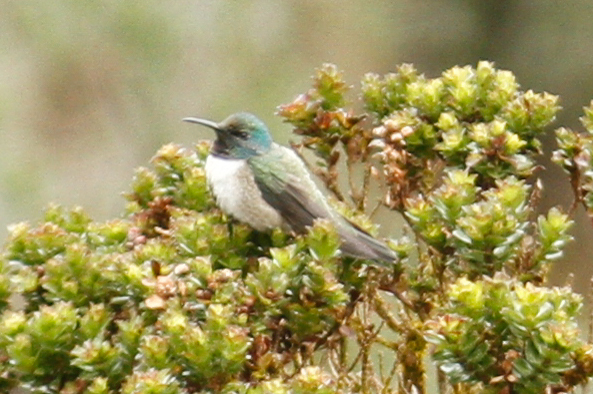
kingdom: Animalia
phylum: Chordata
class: Aves
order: Apodiformes
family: Trochilidae
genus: Oreotrochilus
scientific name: Oreotrochilus chimborazo
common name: Ecuadorian hillstar
